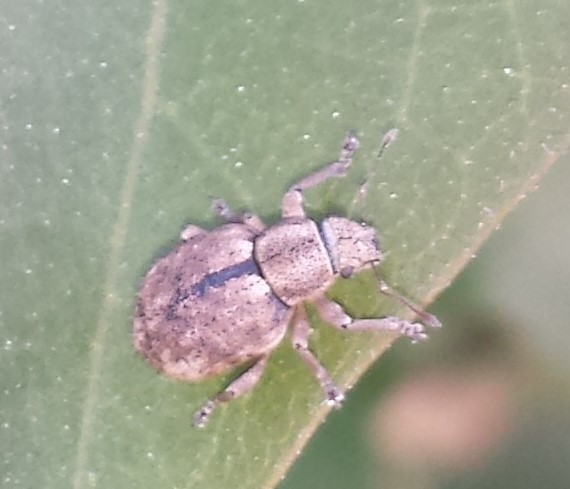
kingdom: Animalia
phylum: Arthropoda
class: Insecta
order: Coleoptera
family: Curculionidae
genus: Strophosoma
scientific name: Strophosoma melanogrammum
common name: Weevil
